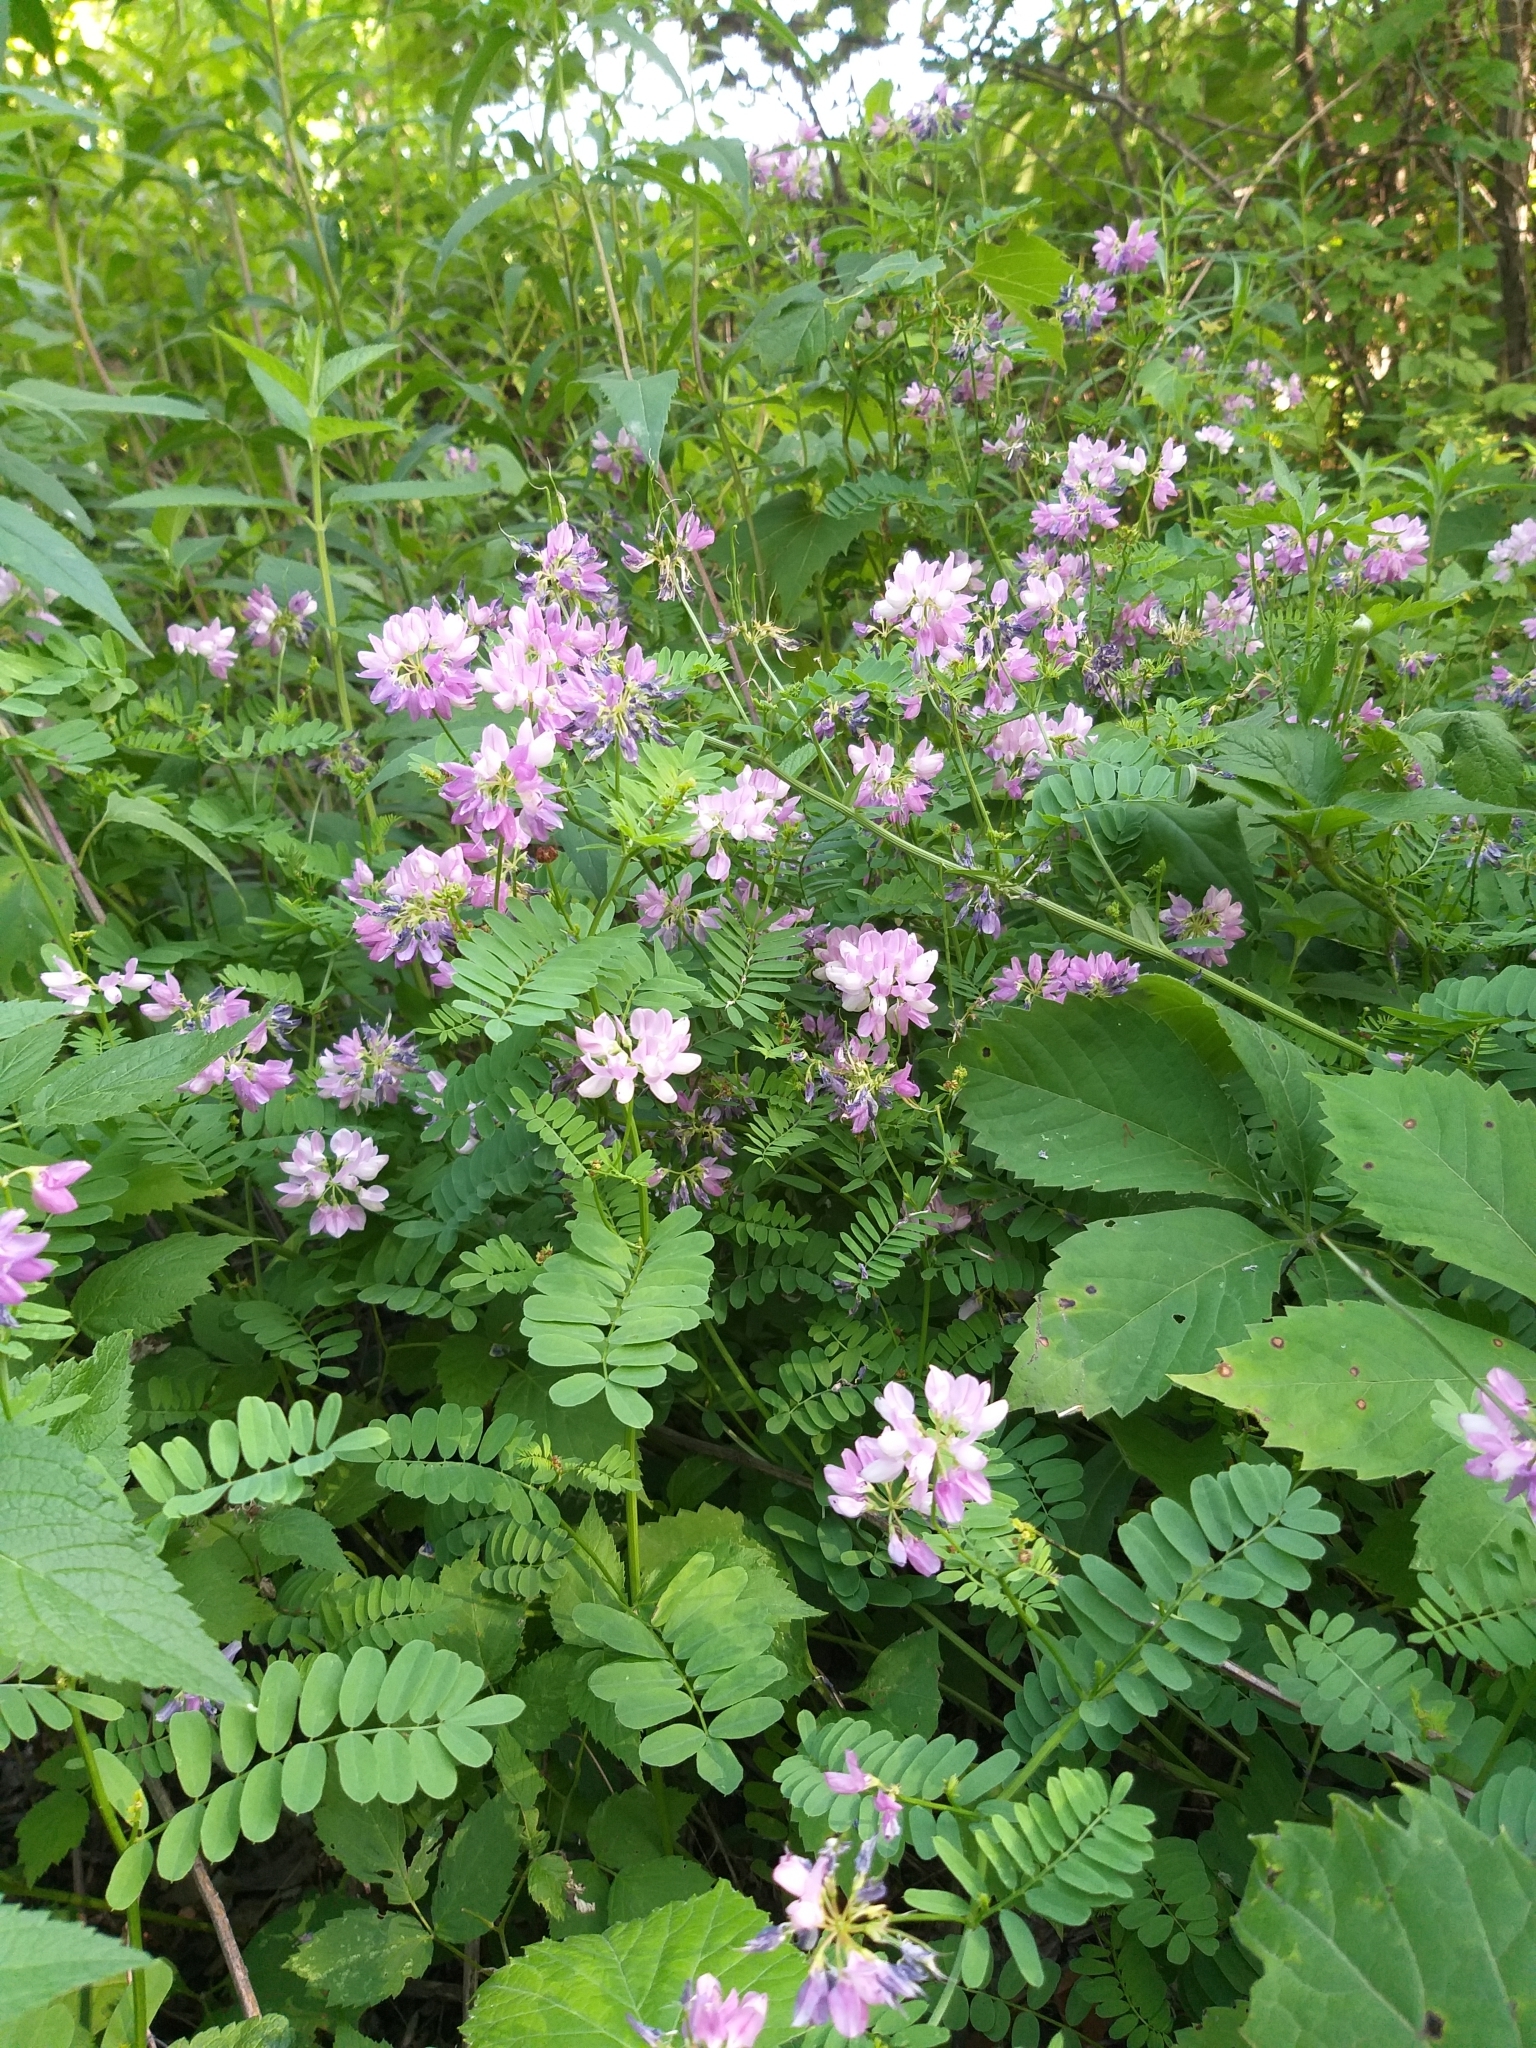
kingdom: Plantae
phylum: Tracheophyta
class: Magnoliopsida
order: Fabales
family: Fabaceae
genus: Coronilla
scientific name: Coronilla varia
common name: Crownvetch
